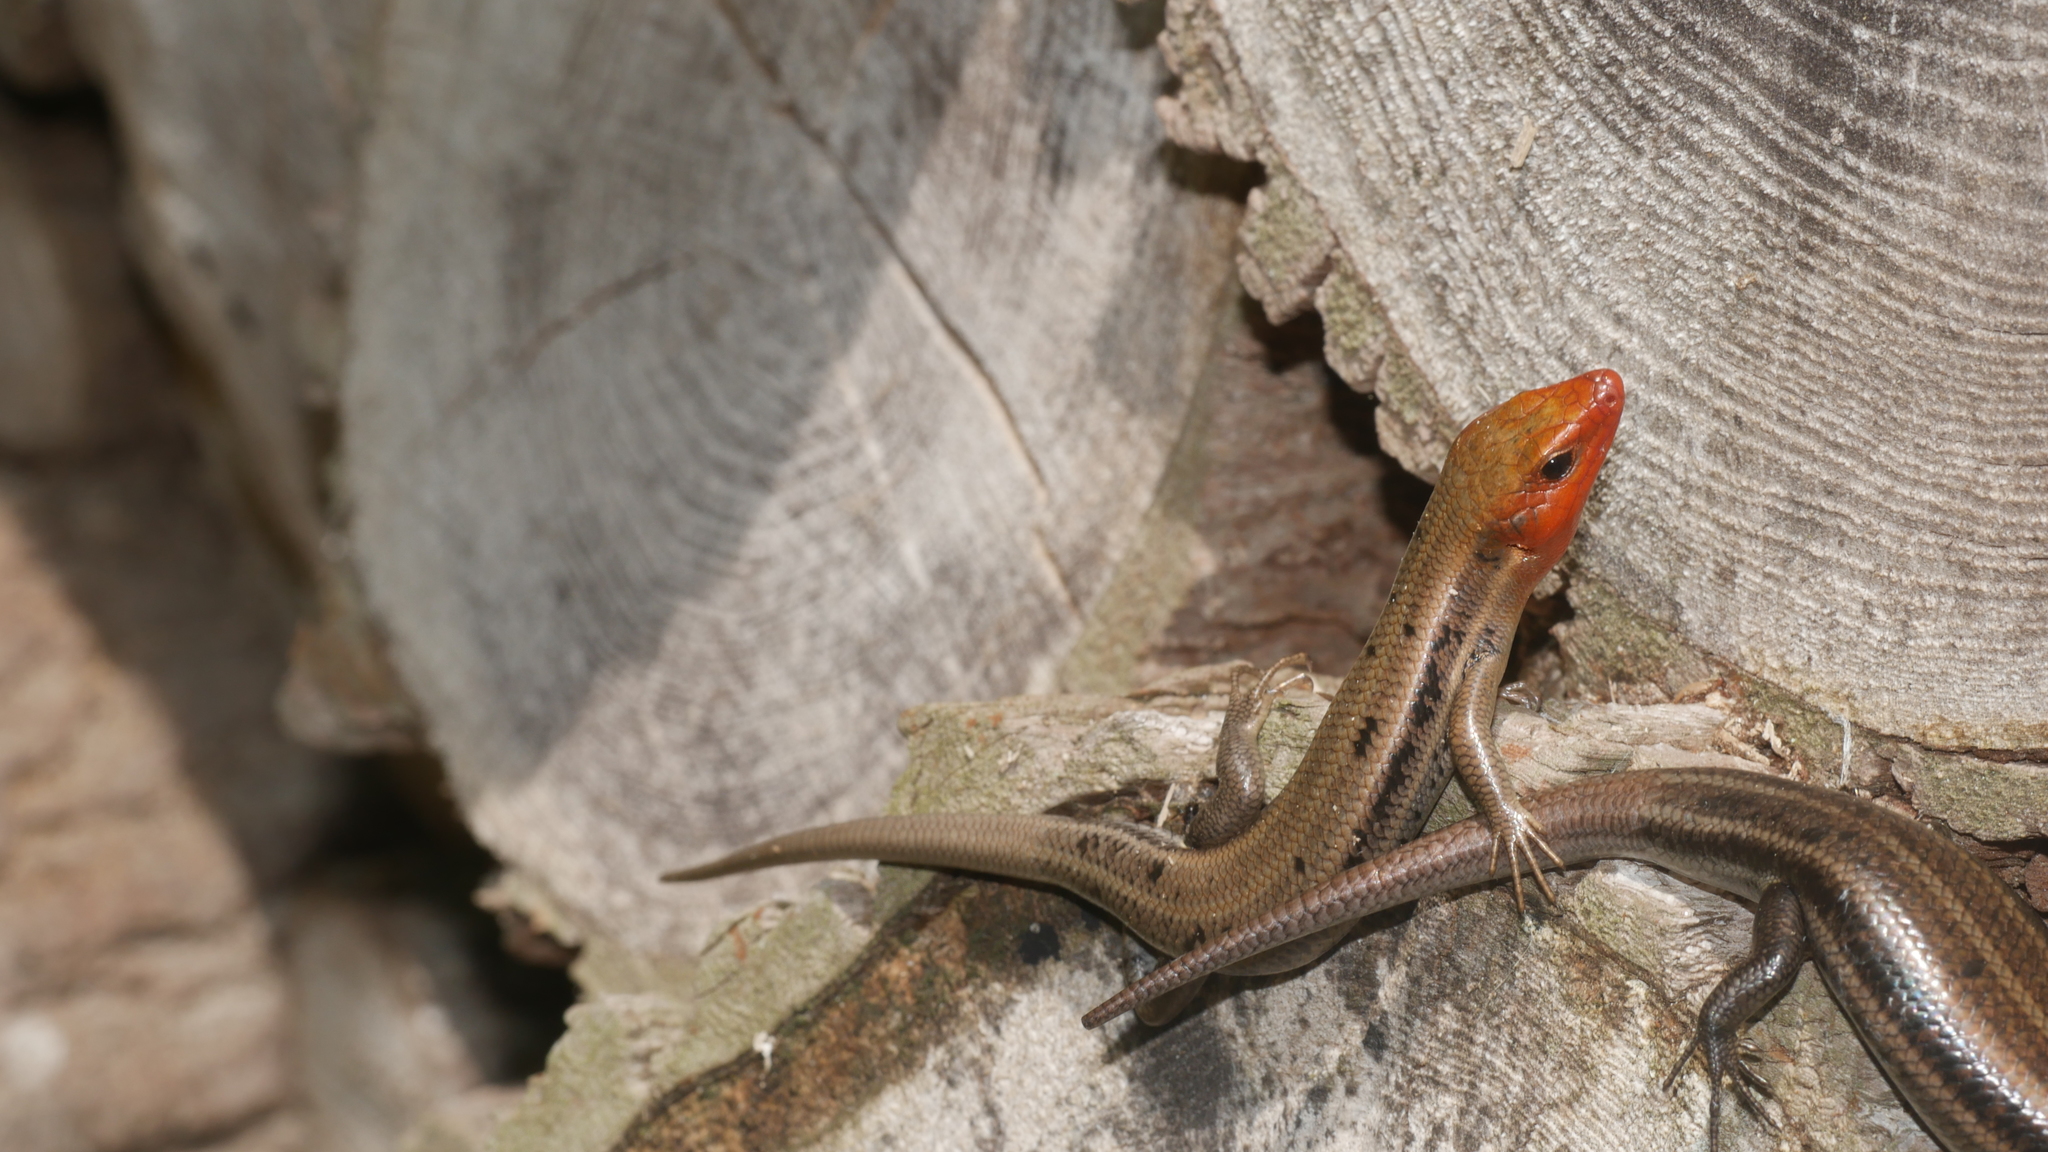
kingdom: Animalia
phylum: Chordata
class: Squamata
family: Scincidae
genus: Plestiodon
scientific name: Plestiodon fasciatus
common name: Five-lined skink
